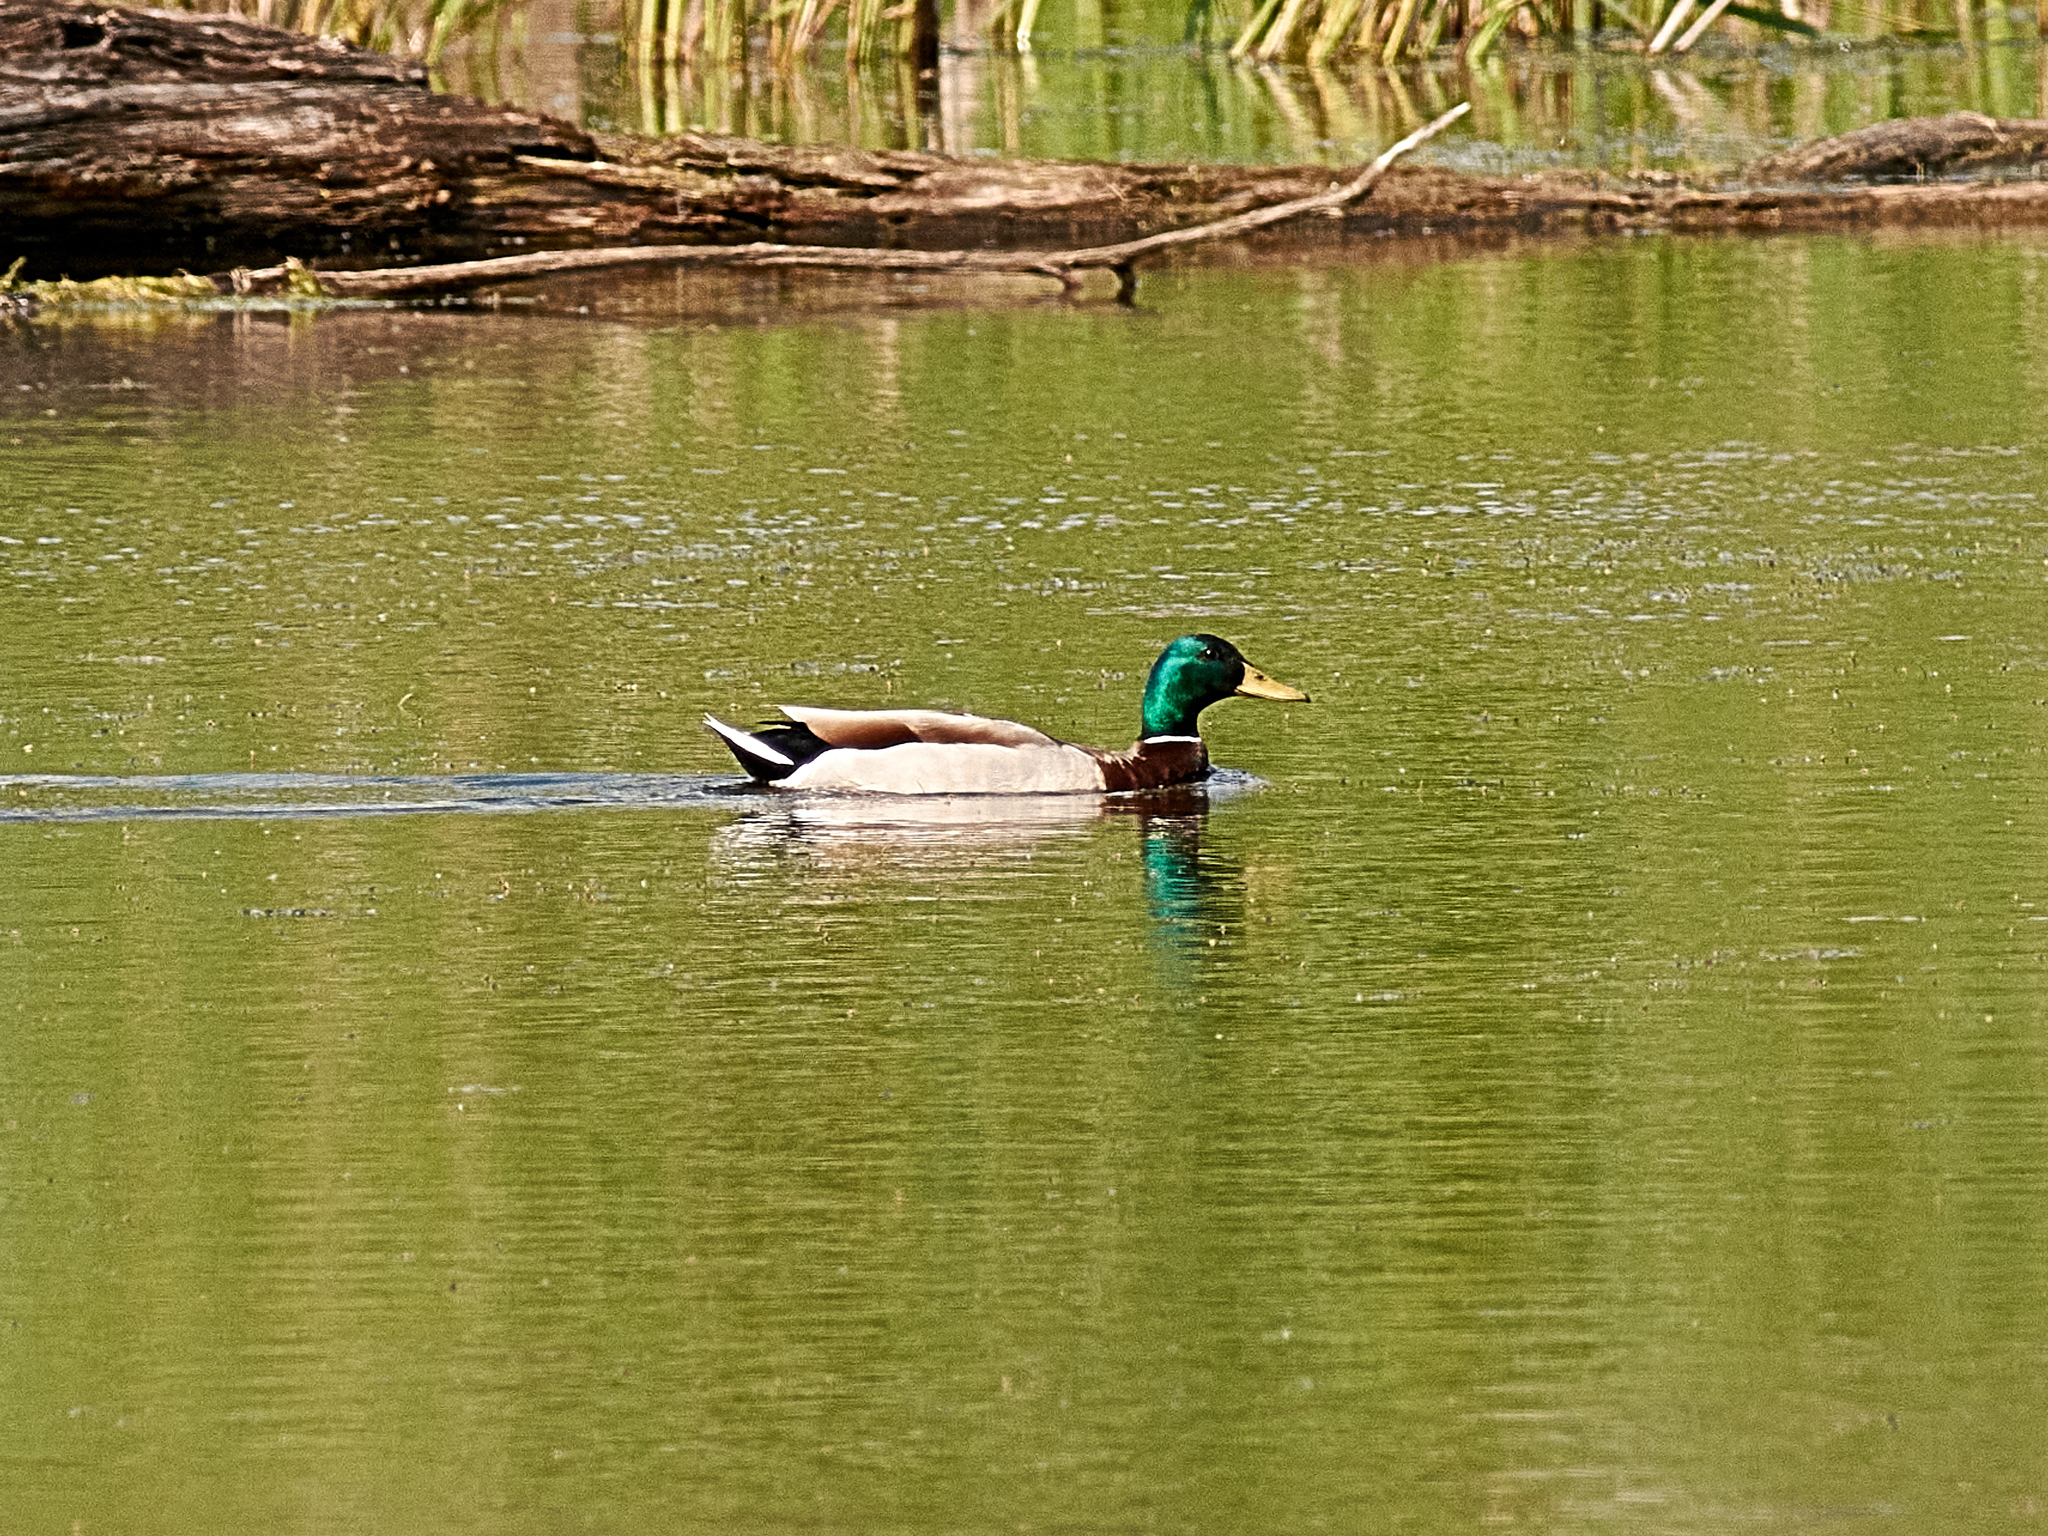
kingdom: Animalia
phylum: Chordata
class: Aves
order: Anseriformes
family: Anatidae
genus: Anas
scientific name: Anas platyrhynchos
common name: Mallard
